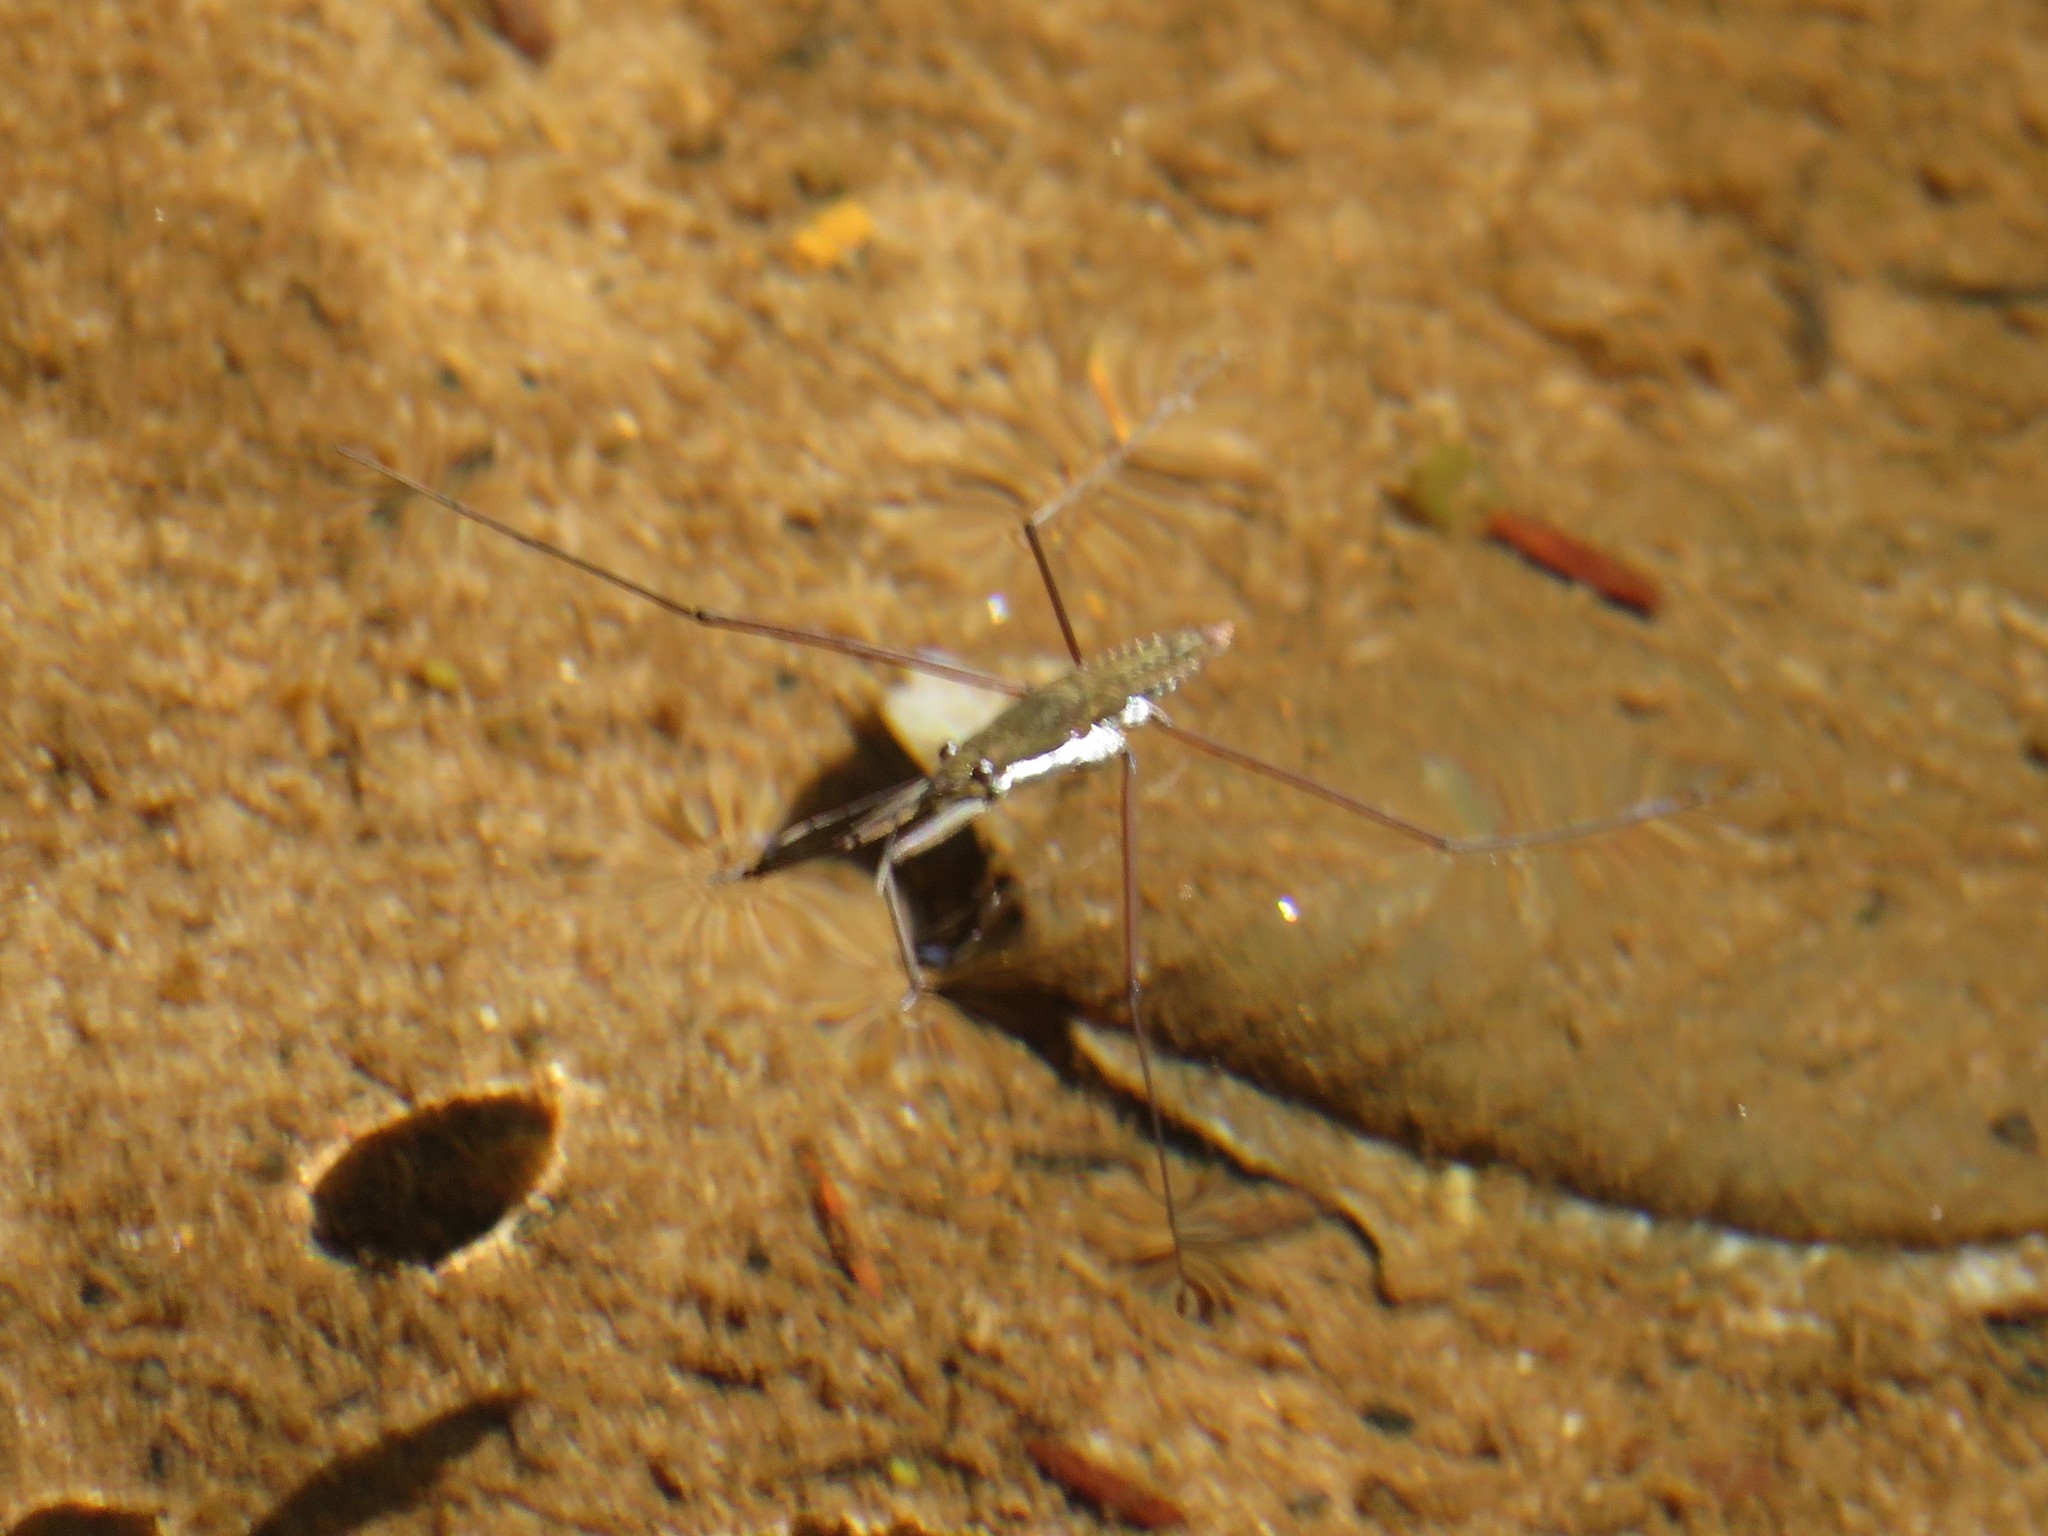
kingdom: Animalia
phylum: Arthropoda
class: Insecta
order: Hemiptera
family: Gerridae
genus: Aquarius
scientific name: Aquarius
